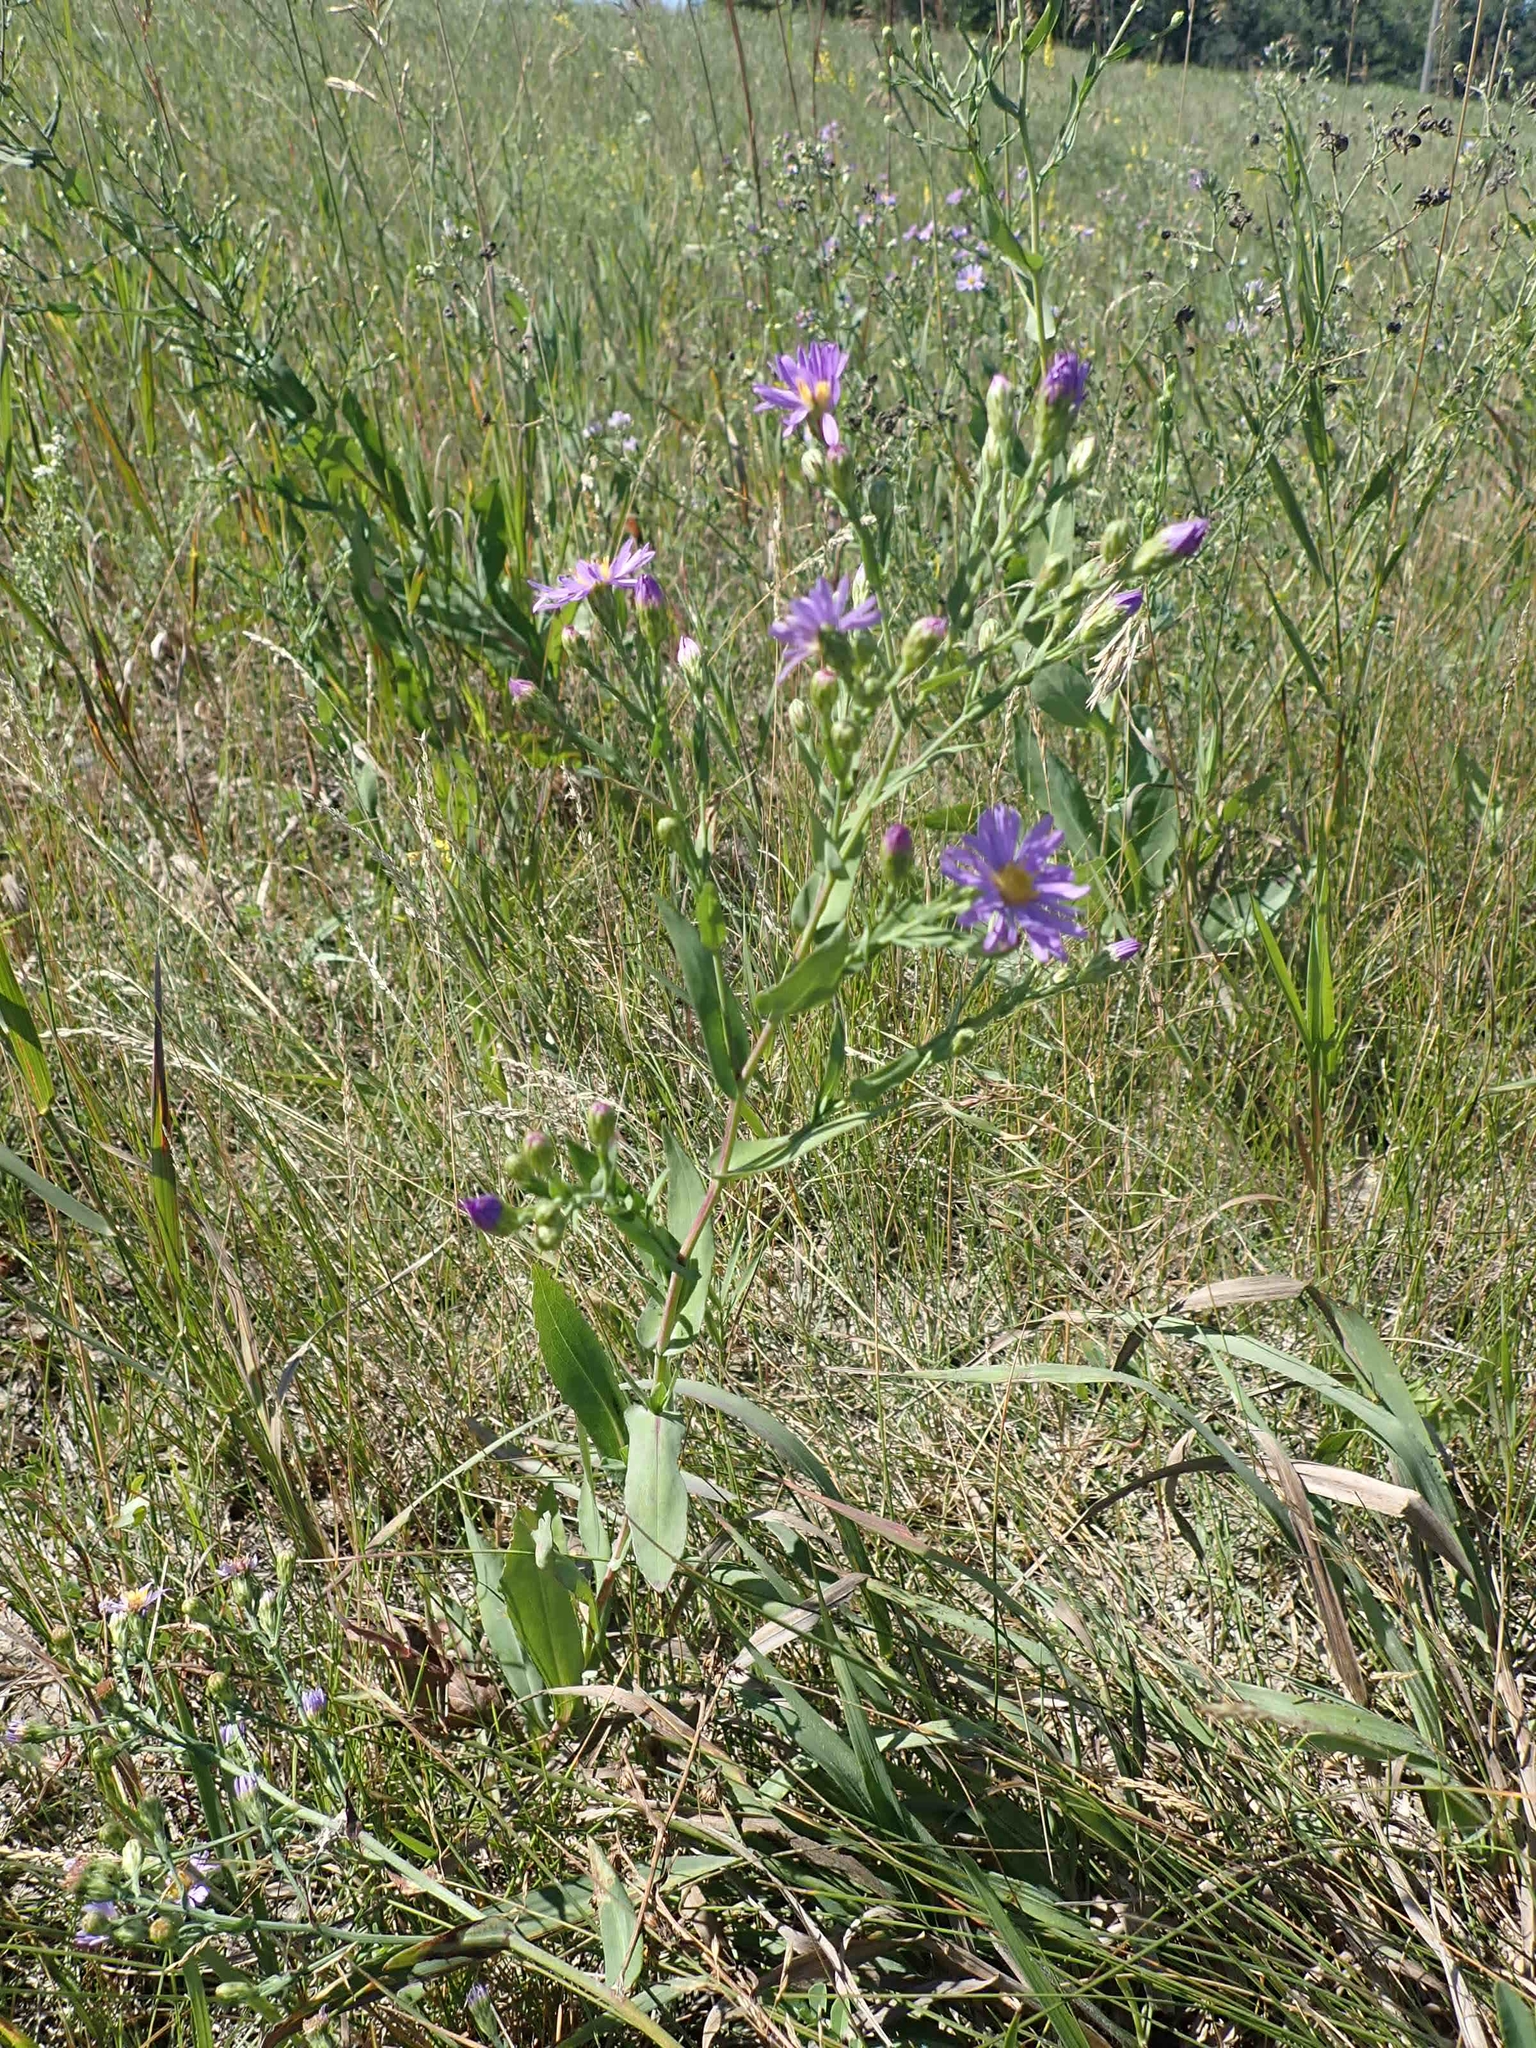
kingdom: Plantae
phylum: Tracheophyta
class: Magnoliopsida
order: Asterales
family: Asteraceae
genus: Symphyotrichum
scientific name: Symphyotrichum laeve
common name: Glaucous aster
